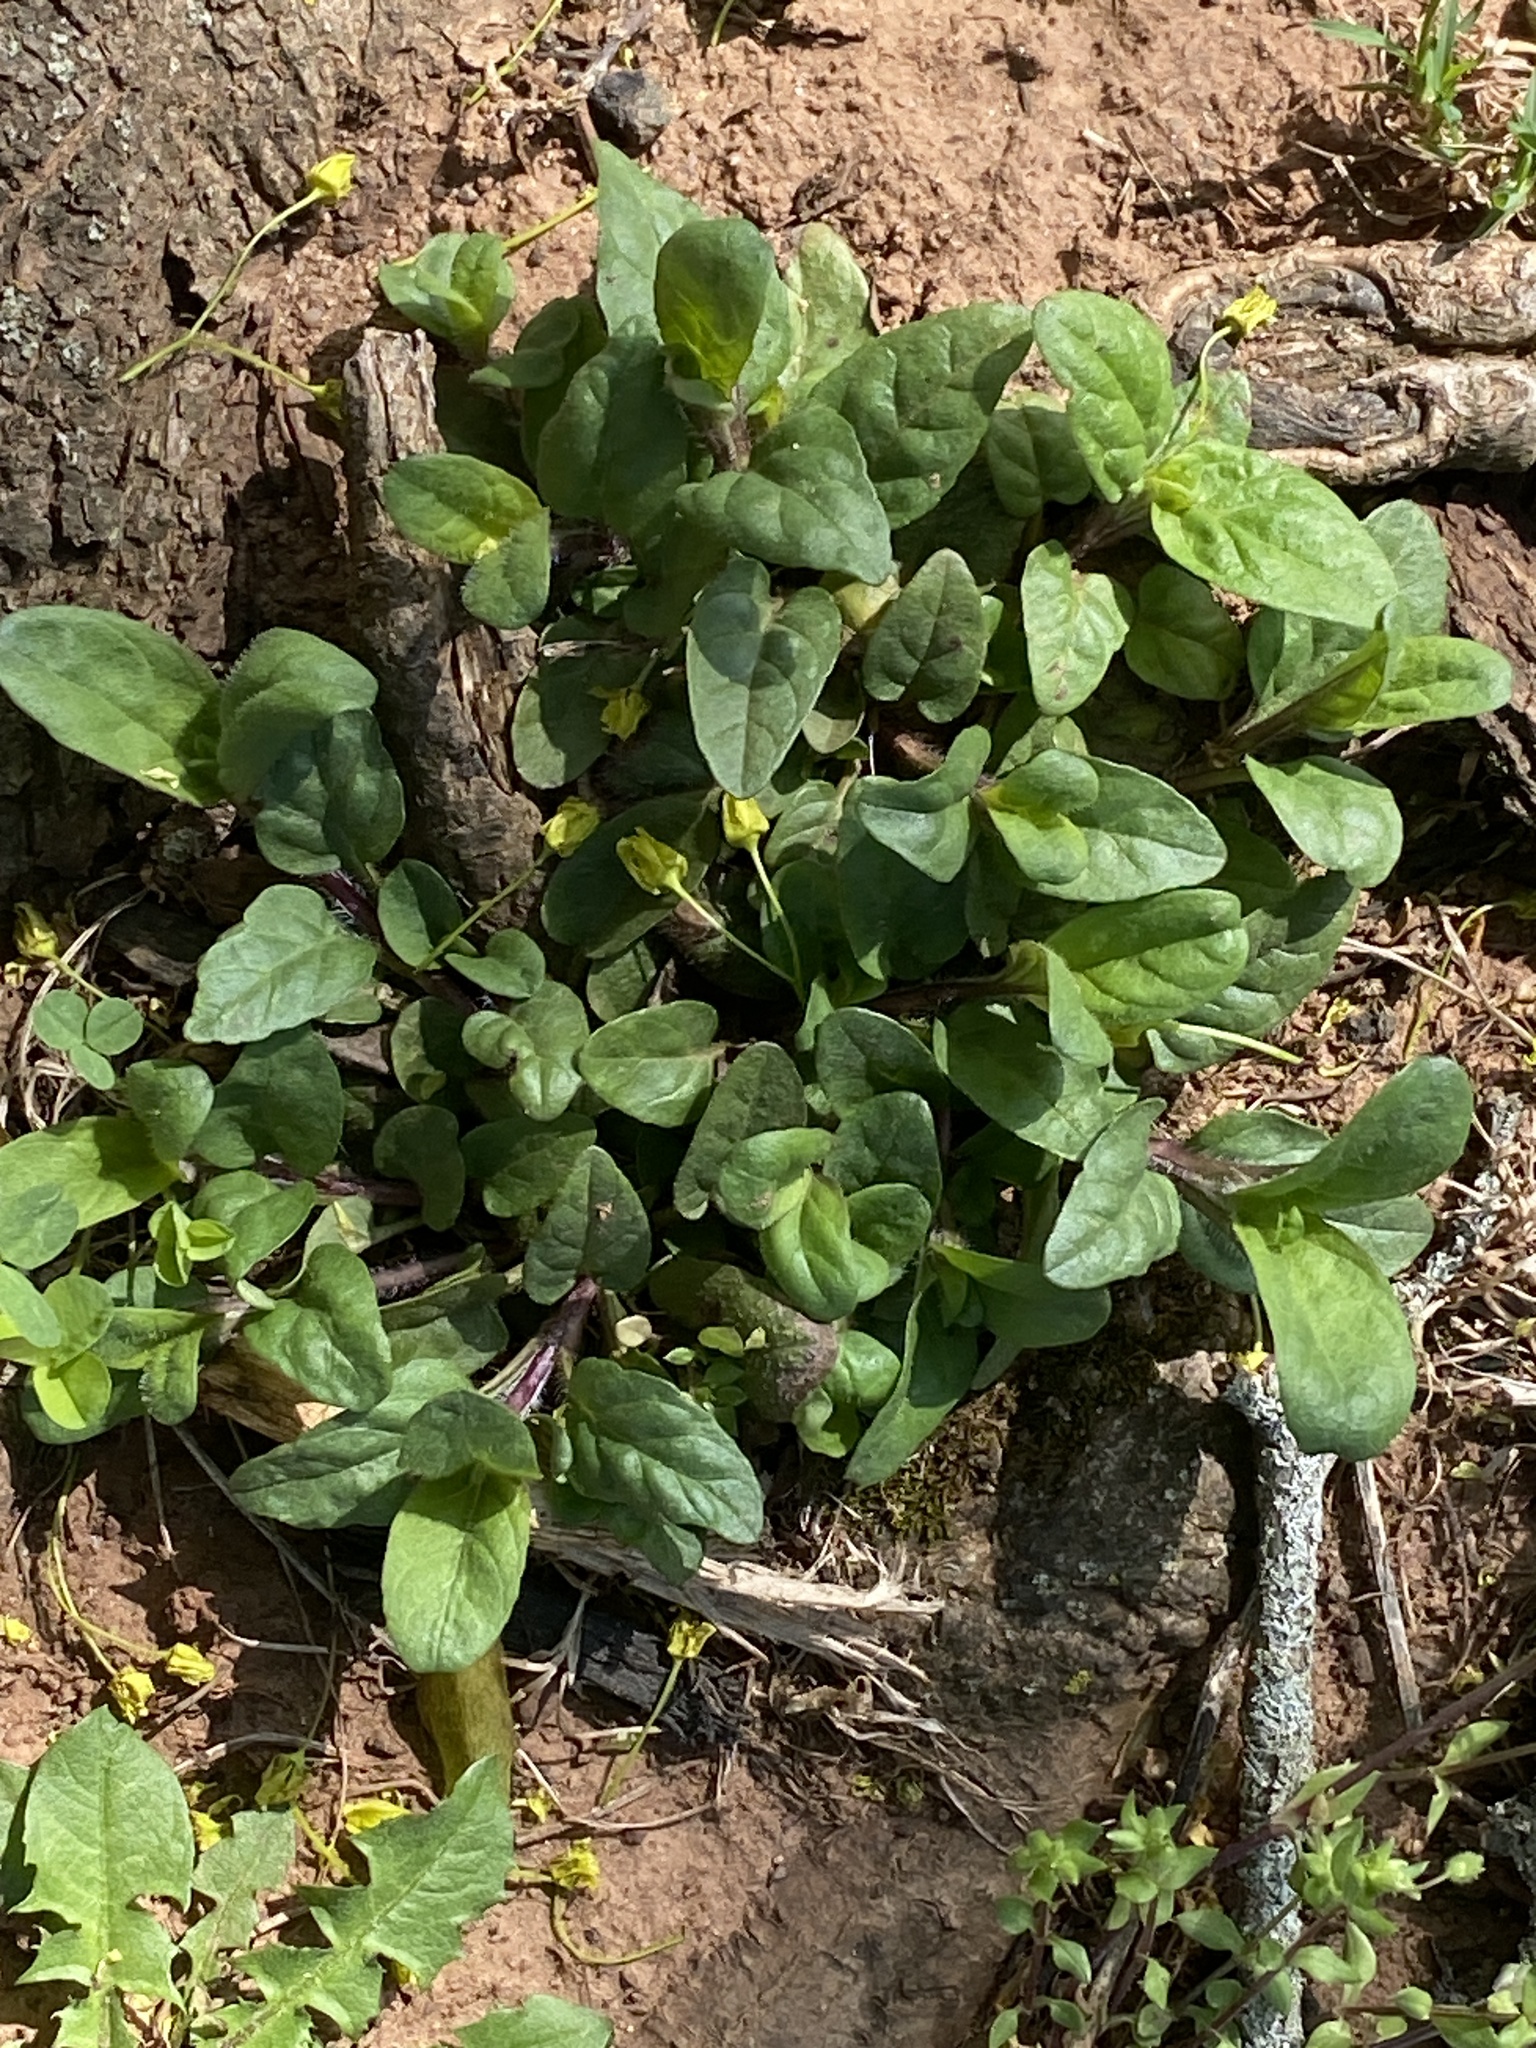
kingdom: Plantae
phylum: Tracheophyta
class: Magnoliopsida
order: Lamiales
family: Lamiaceae
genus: Prunella
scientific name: Prunella vulgaris
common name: Heal-all
